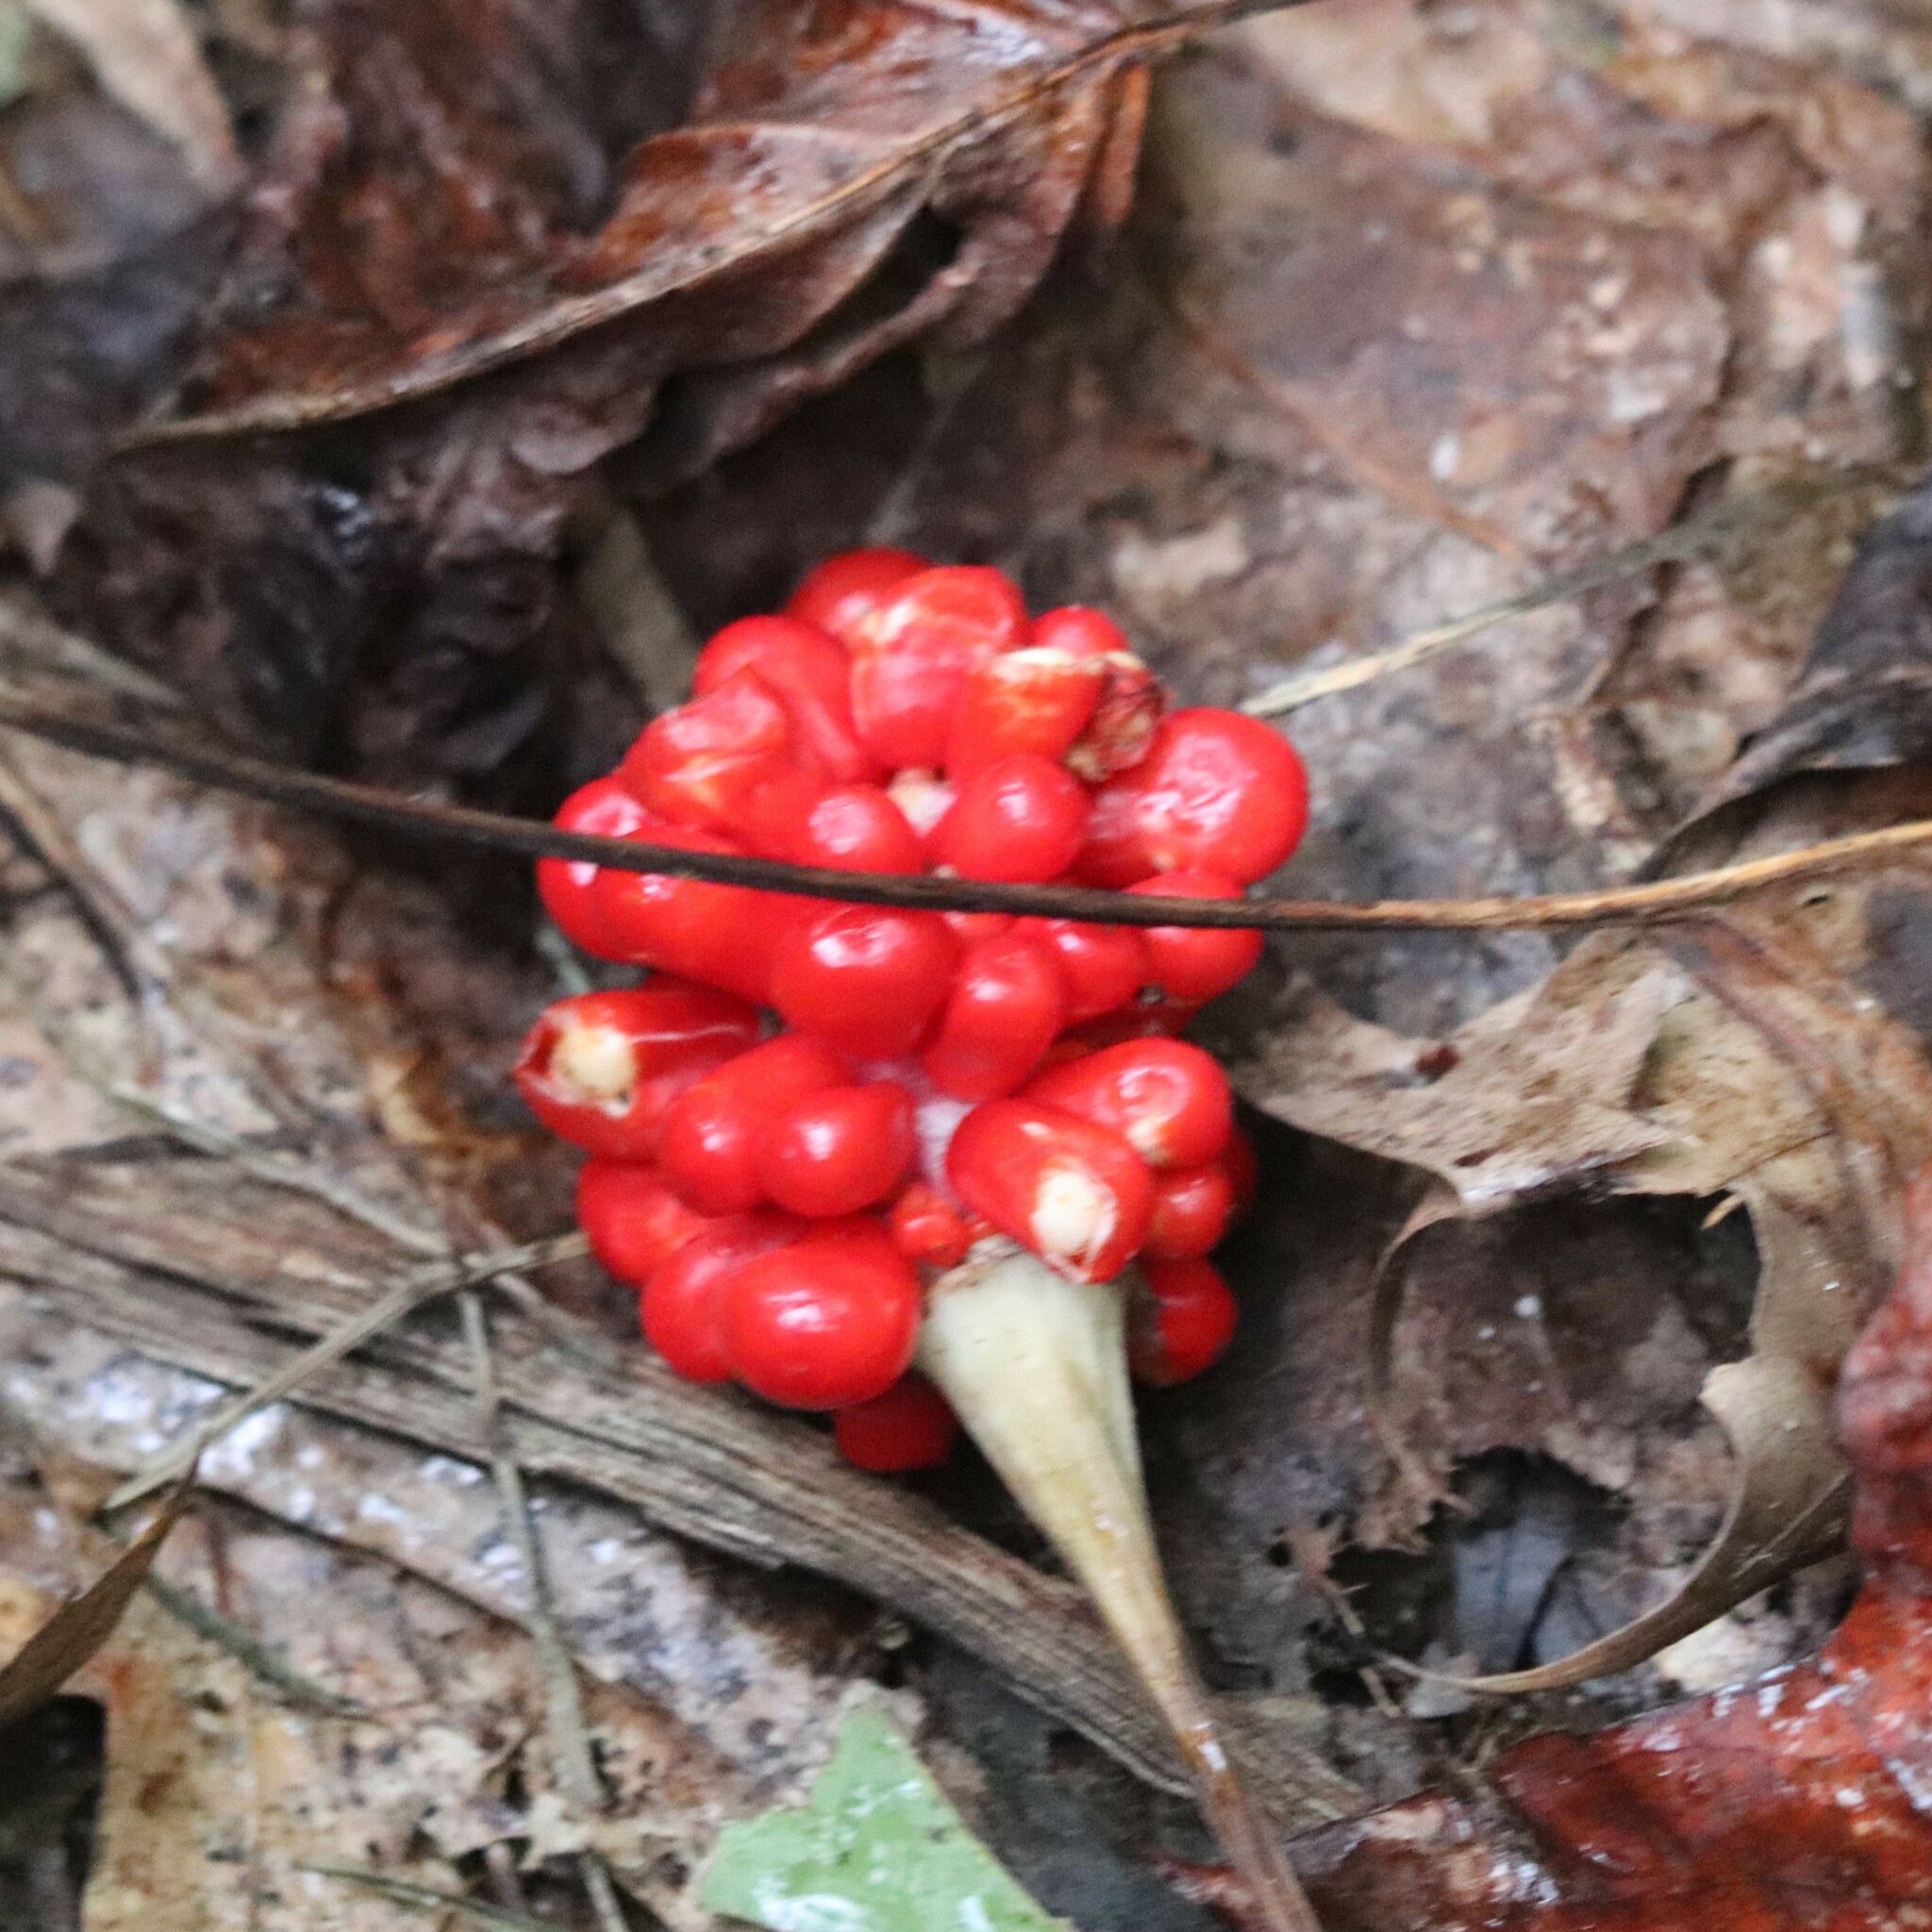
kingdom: Plantae
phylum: Tracheophyta
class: Liliopsida
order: Alismatales
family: Araceae
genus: Arisaema
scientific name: Arisaema triphyllum
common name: Jack-in-the-pulpit
